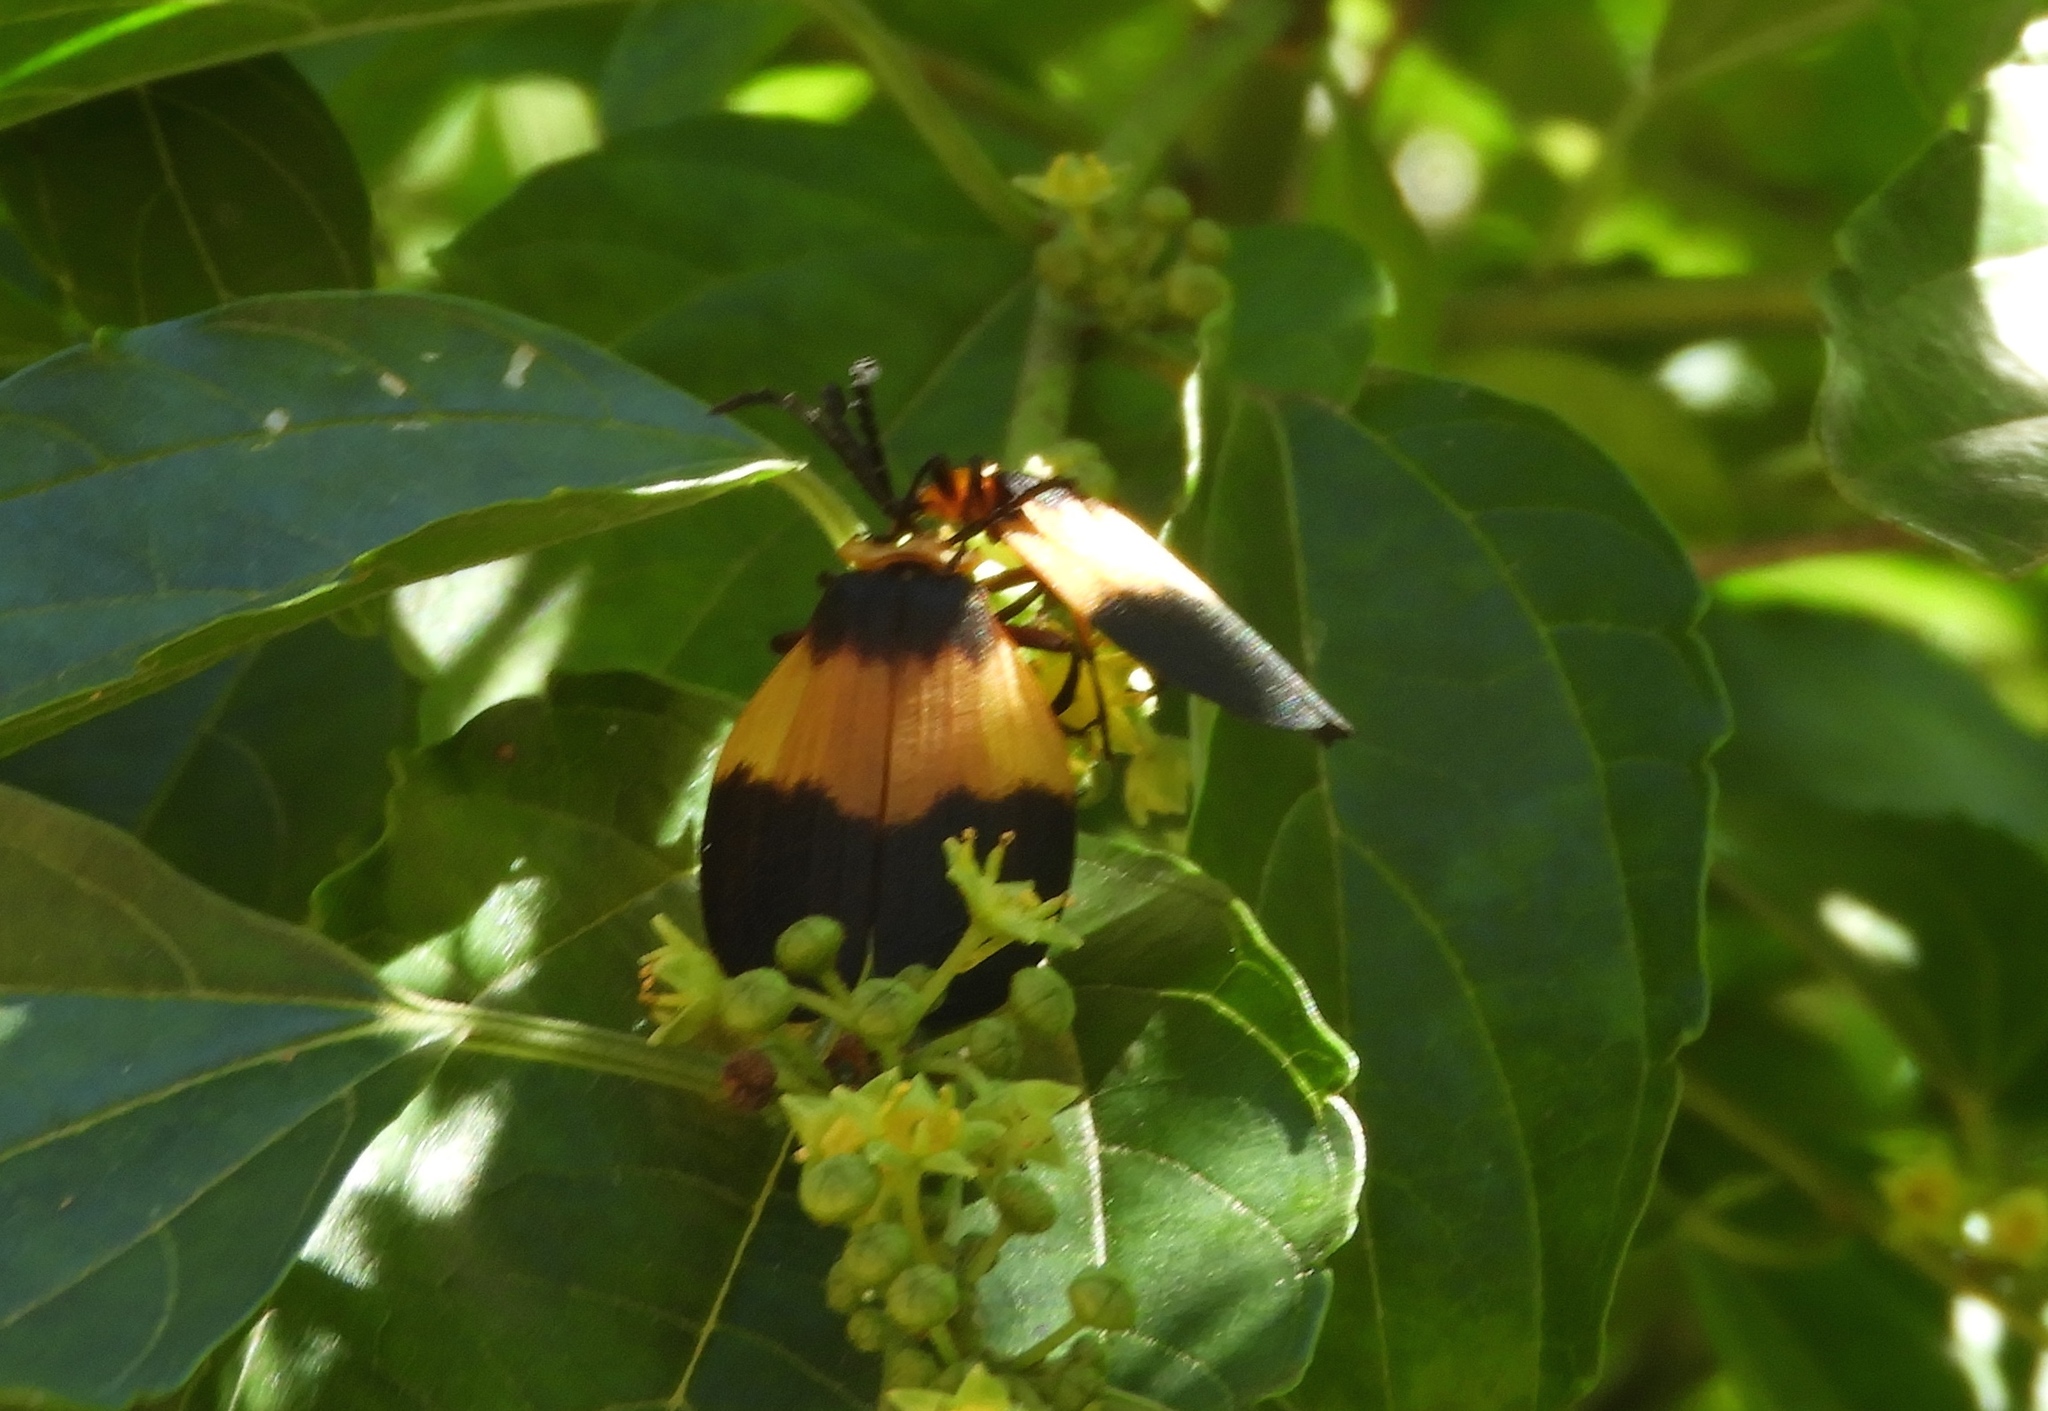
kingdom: Animalia
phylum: Arthropoda
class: Insecta
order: Coleoptera
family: Lycidae
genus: Lycus
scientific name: Lycus
